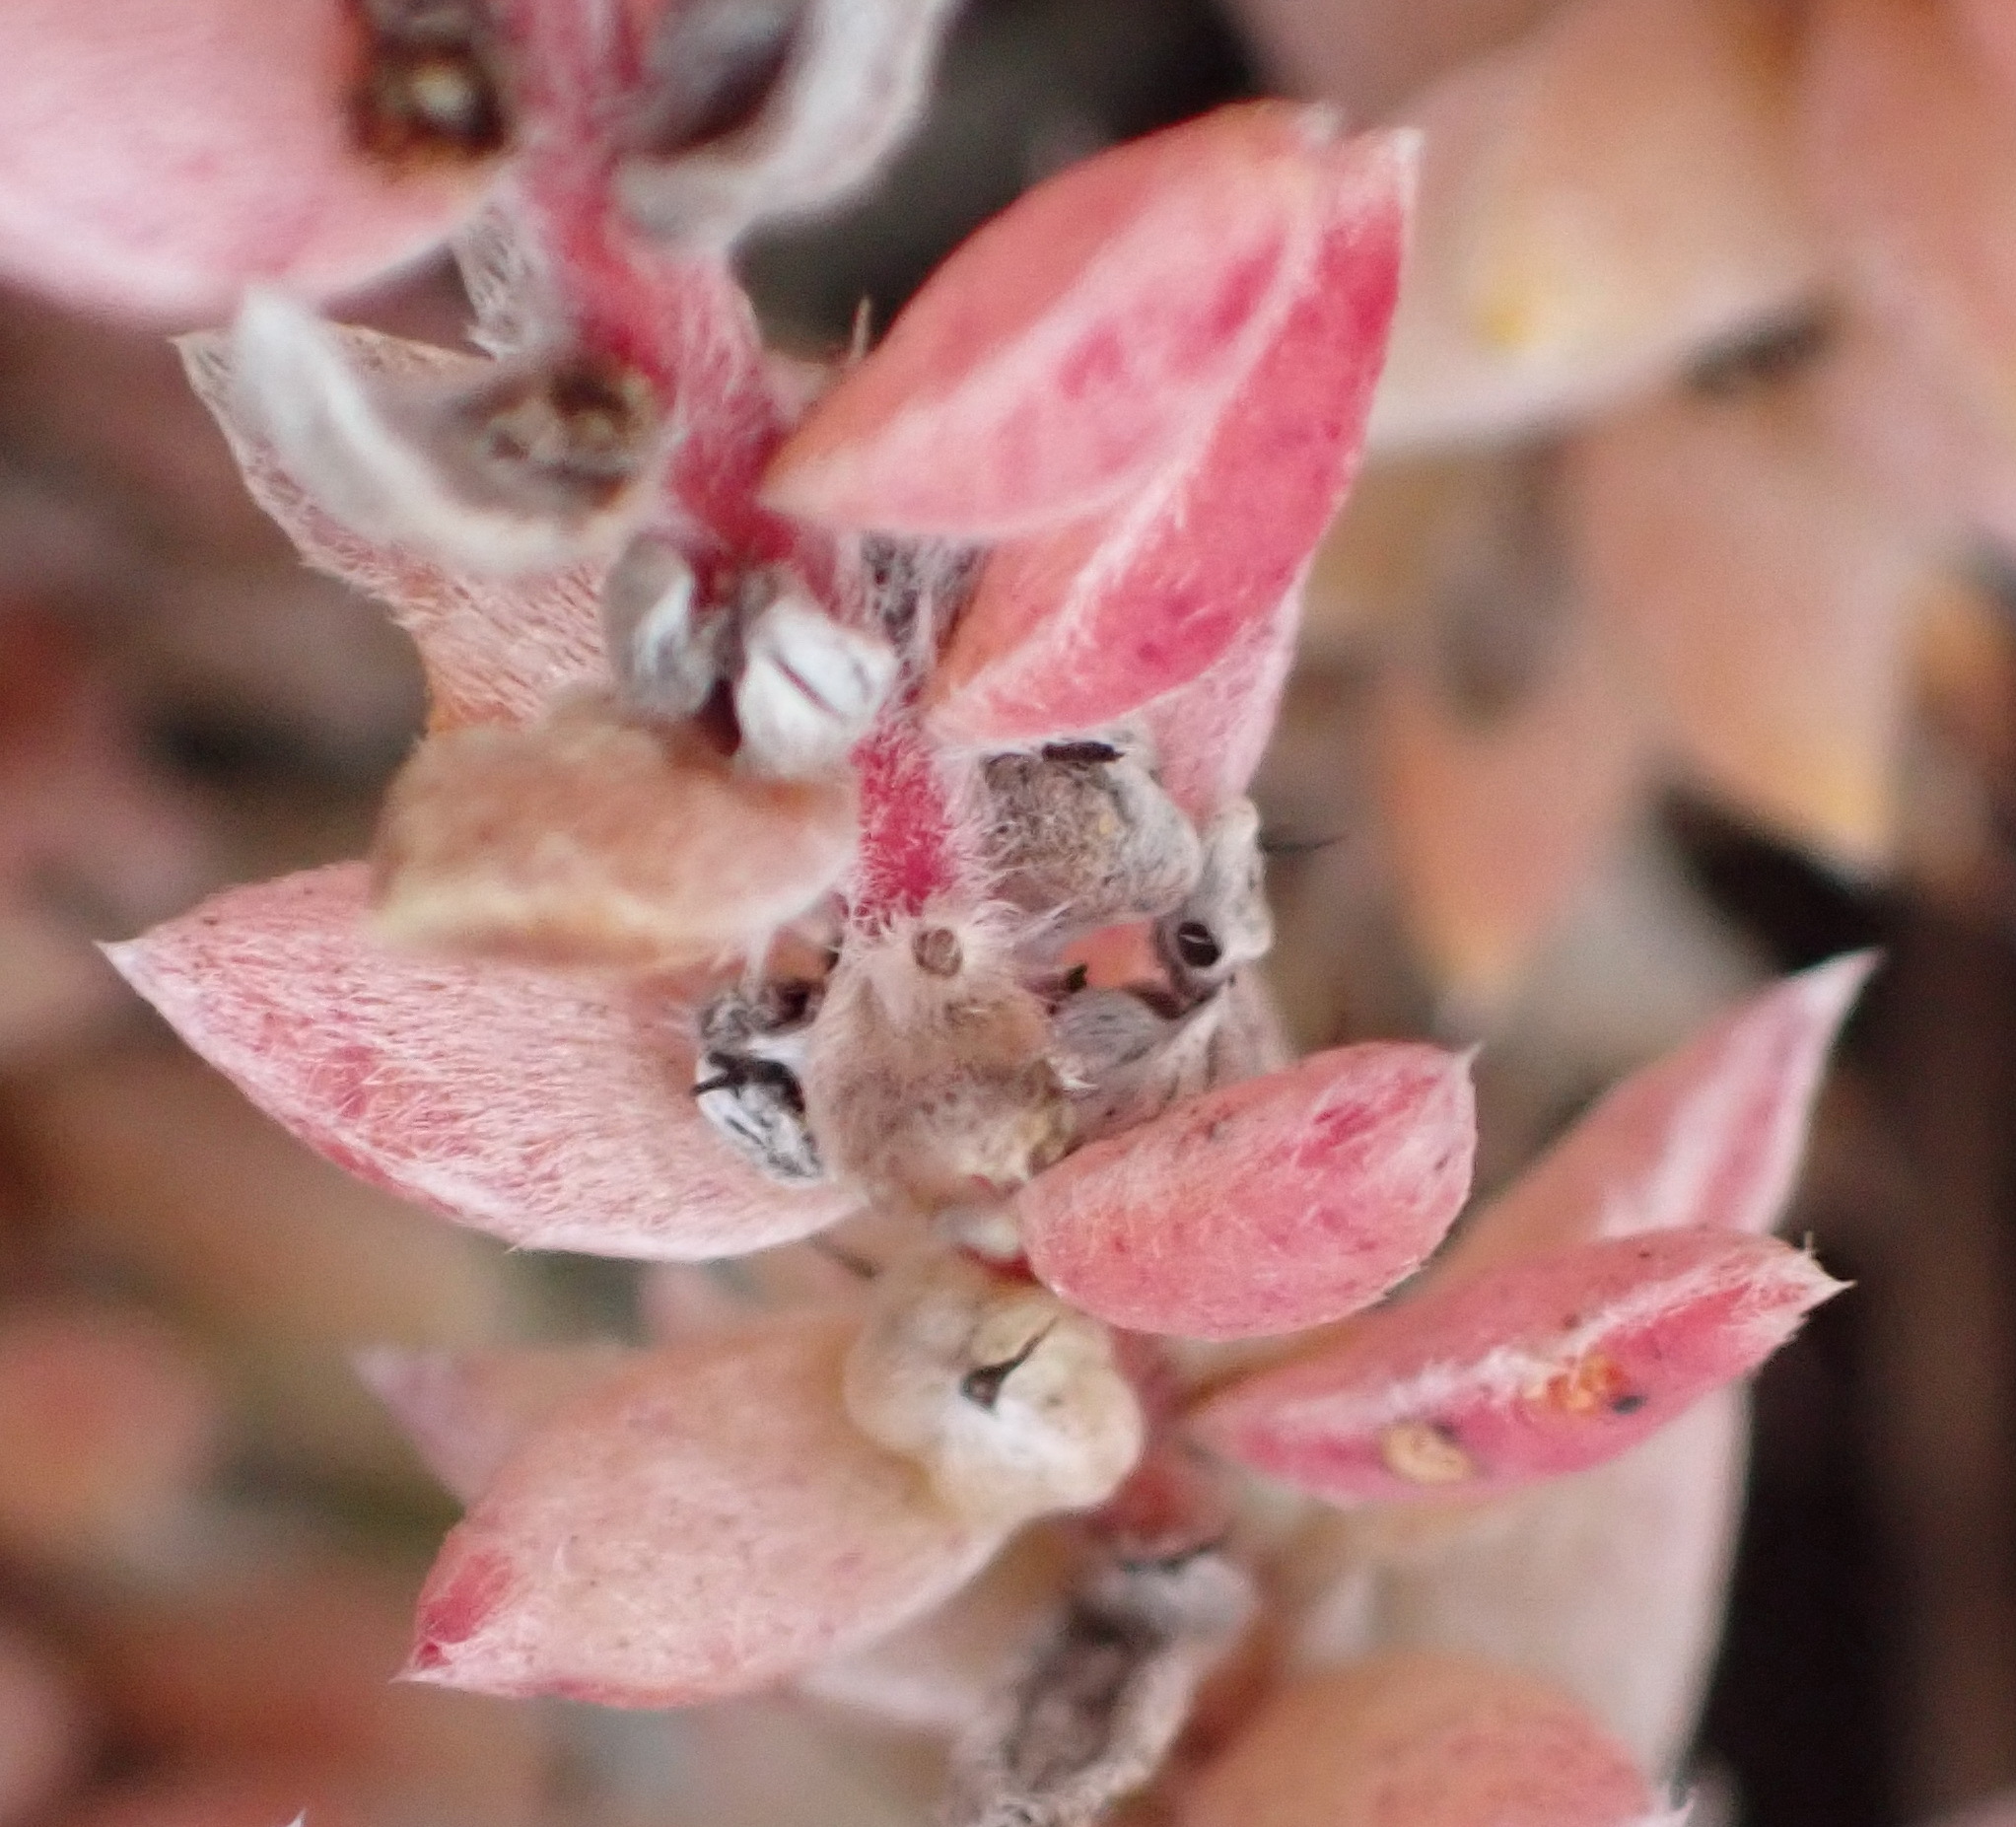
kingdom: Plantae
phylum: Tracheophyta
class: Magnoliopsida
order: Caryophyllales
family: Amaranthaceae
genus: Chenolea
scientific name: Chenolea diffusa
